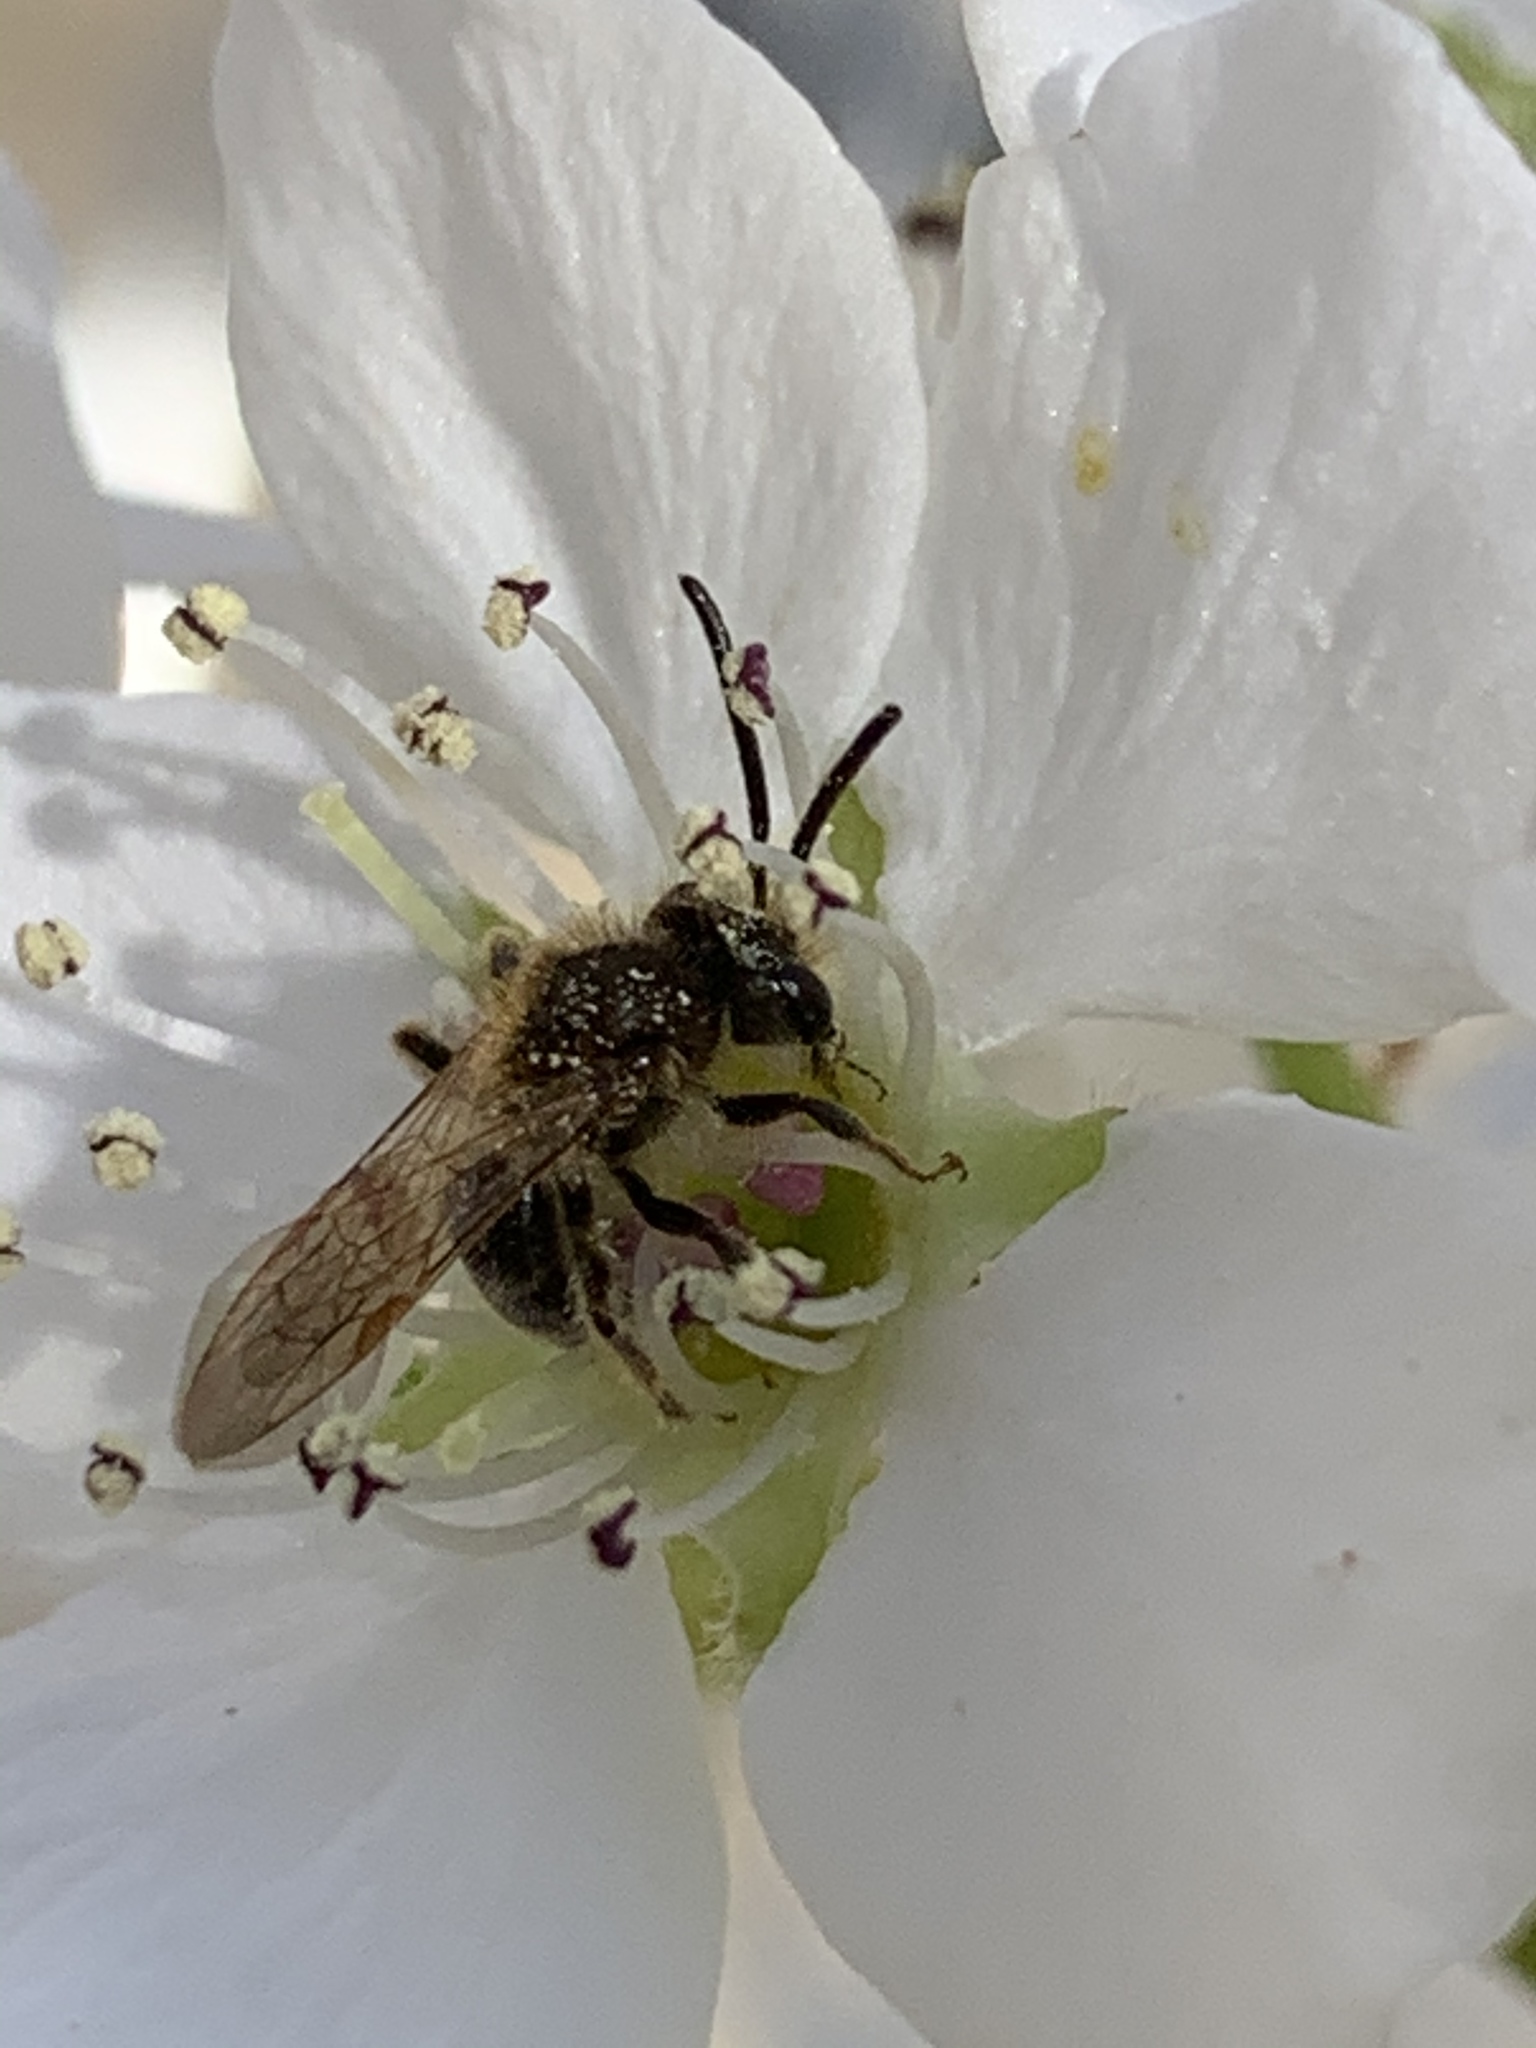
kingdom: Animalia
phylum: Arthropoda
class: Insecta
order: Hymenoptera
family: Andrenidae
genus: Andrena
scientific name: Andrena miserabilis
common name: Miserable mining bee
